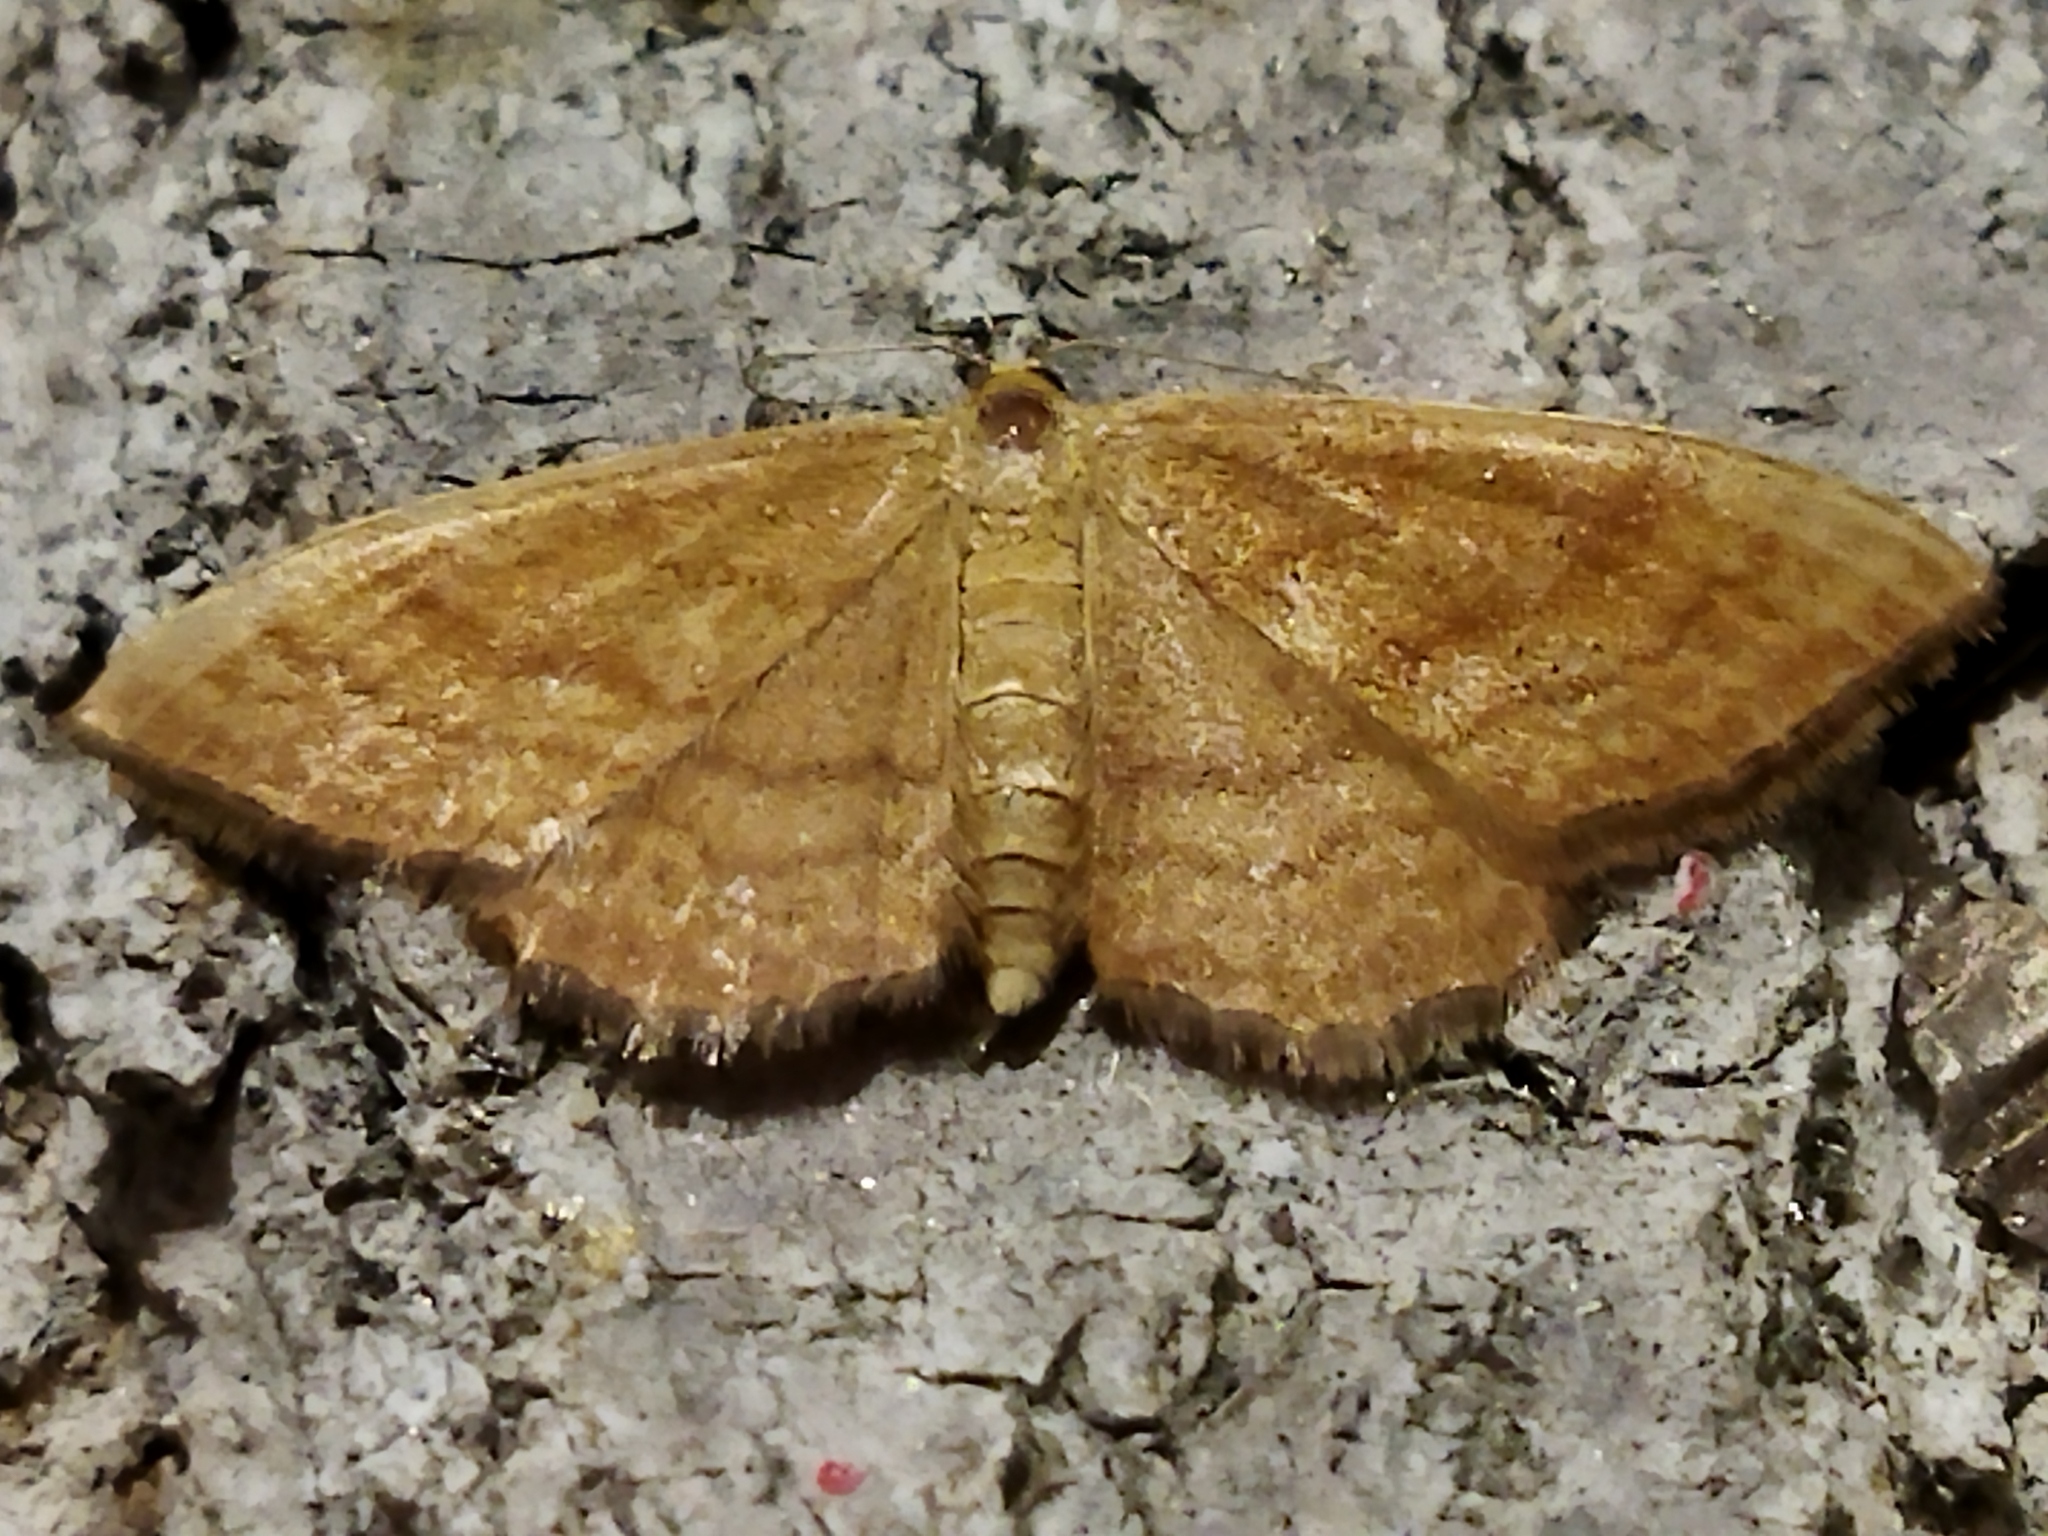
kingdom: Animalia
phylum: Arthropoda
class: Insecta
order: Lepidoptera
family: Geometridae
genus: Idaea
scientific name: Idaea ochrata
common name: Bright wave
